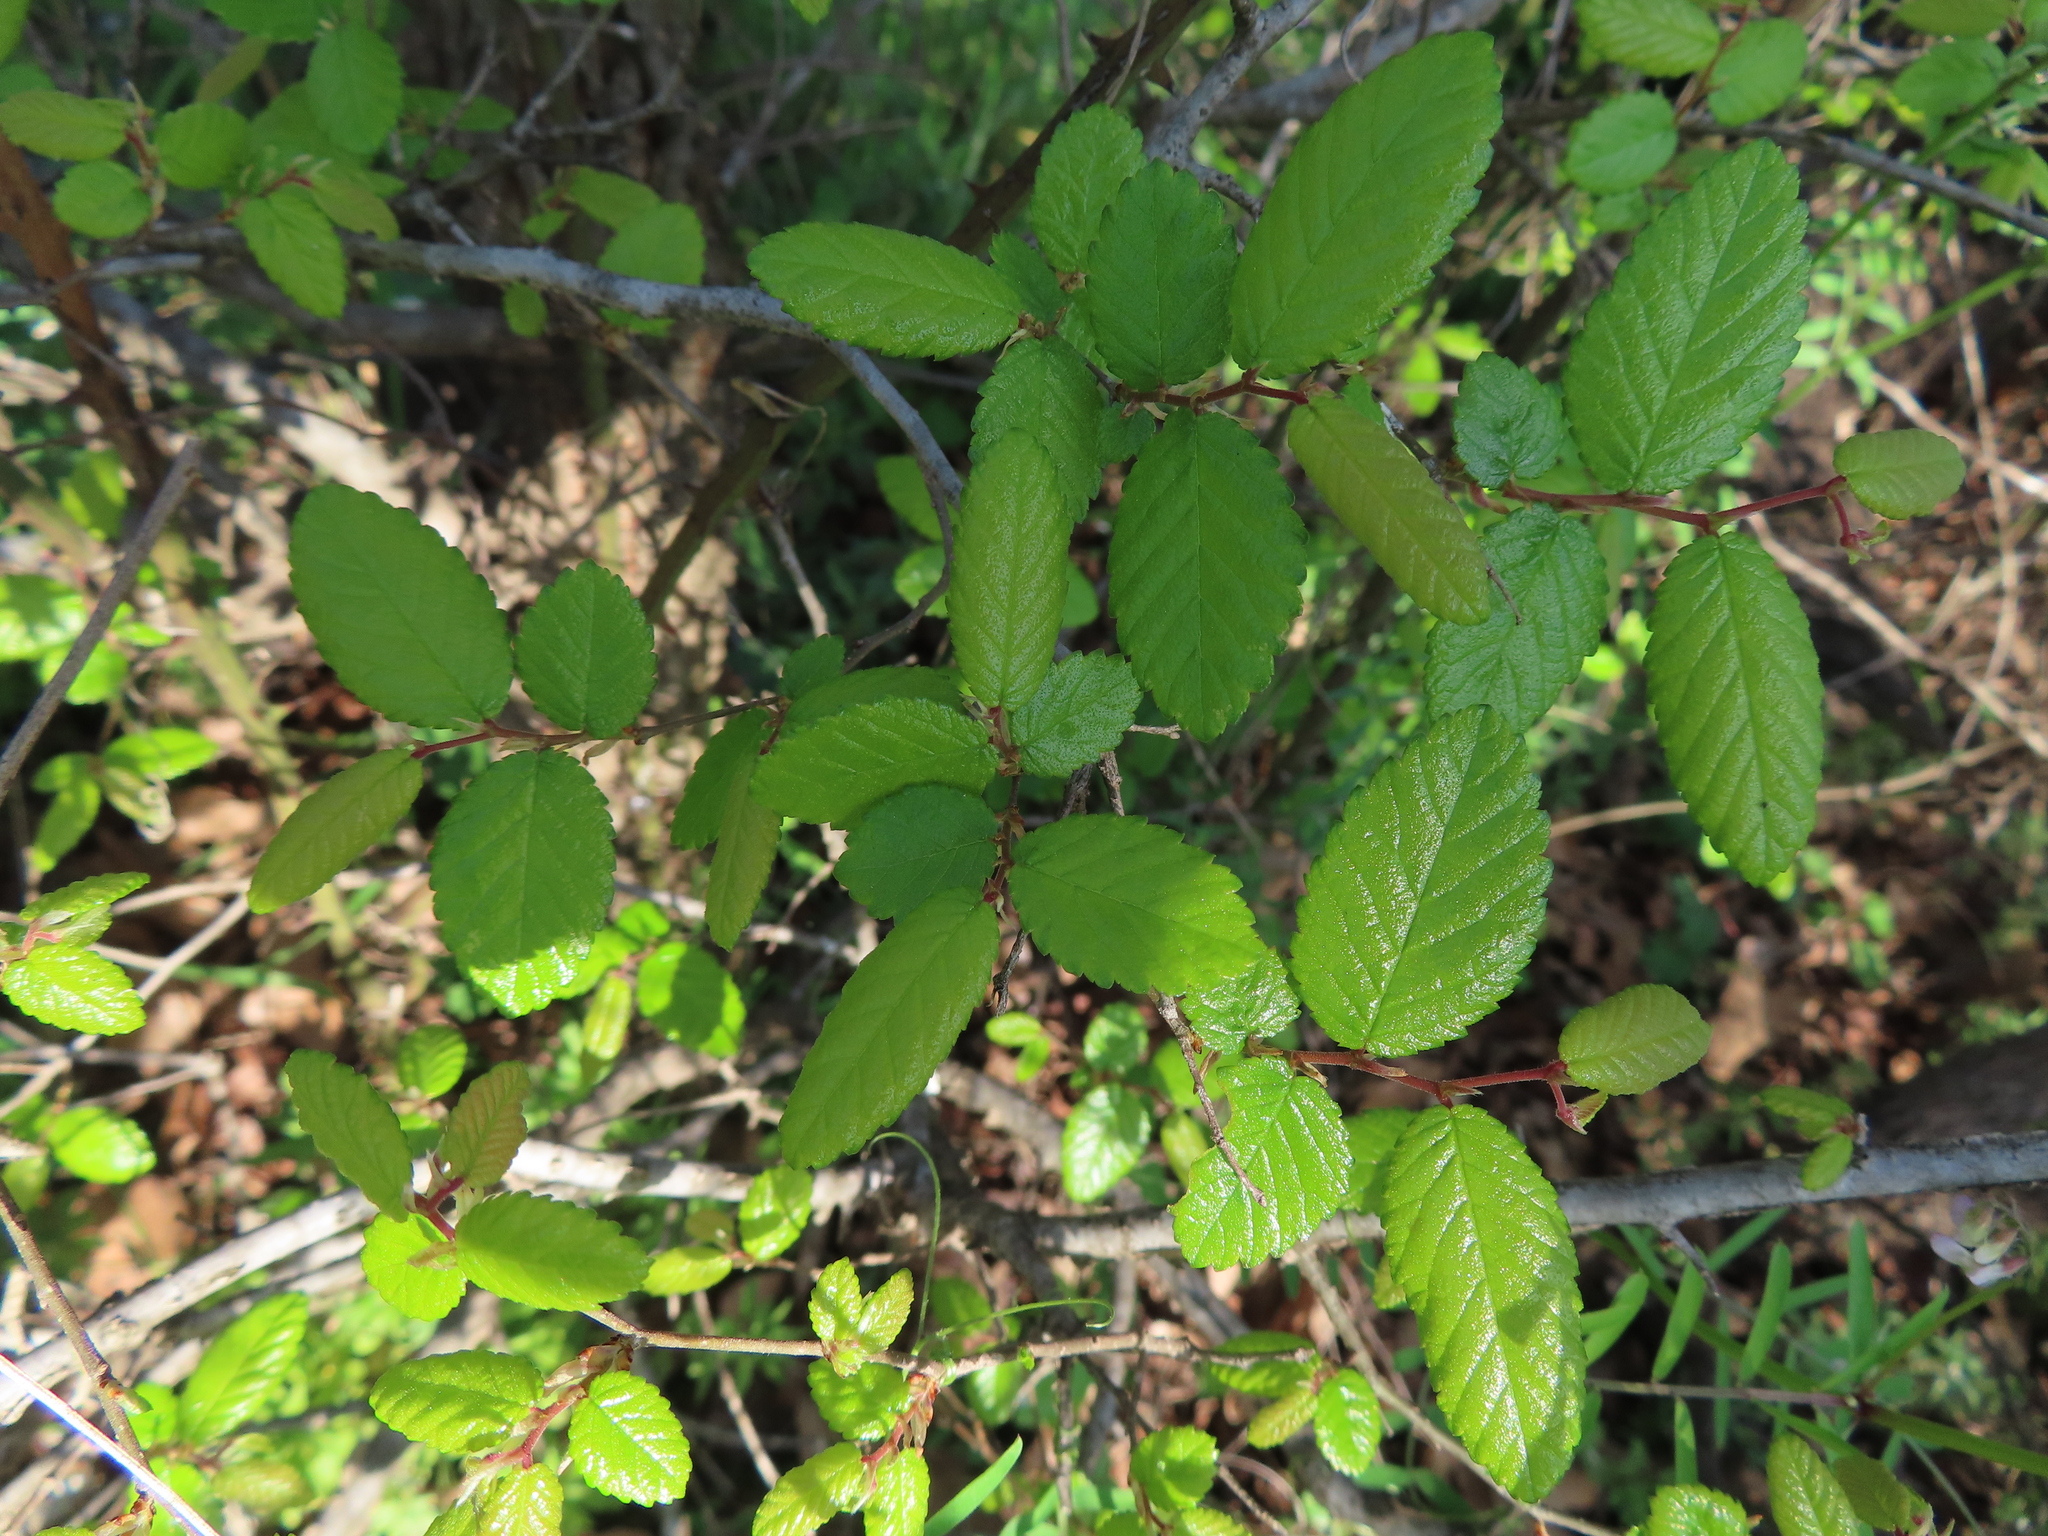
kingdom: Plantae
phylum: Tracheophyta
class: Magnoliopsida
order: Rosales
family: Ulmaceae
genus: Ulmus
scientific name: Ulmus crassifolia
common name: Basket elm
